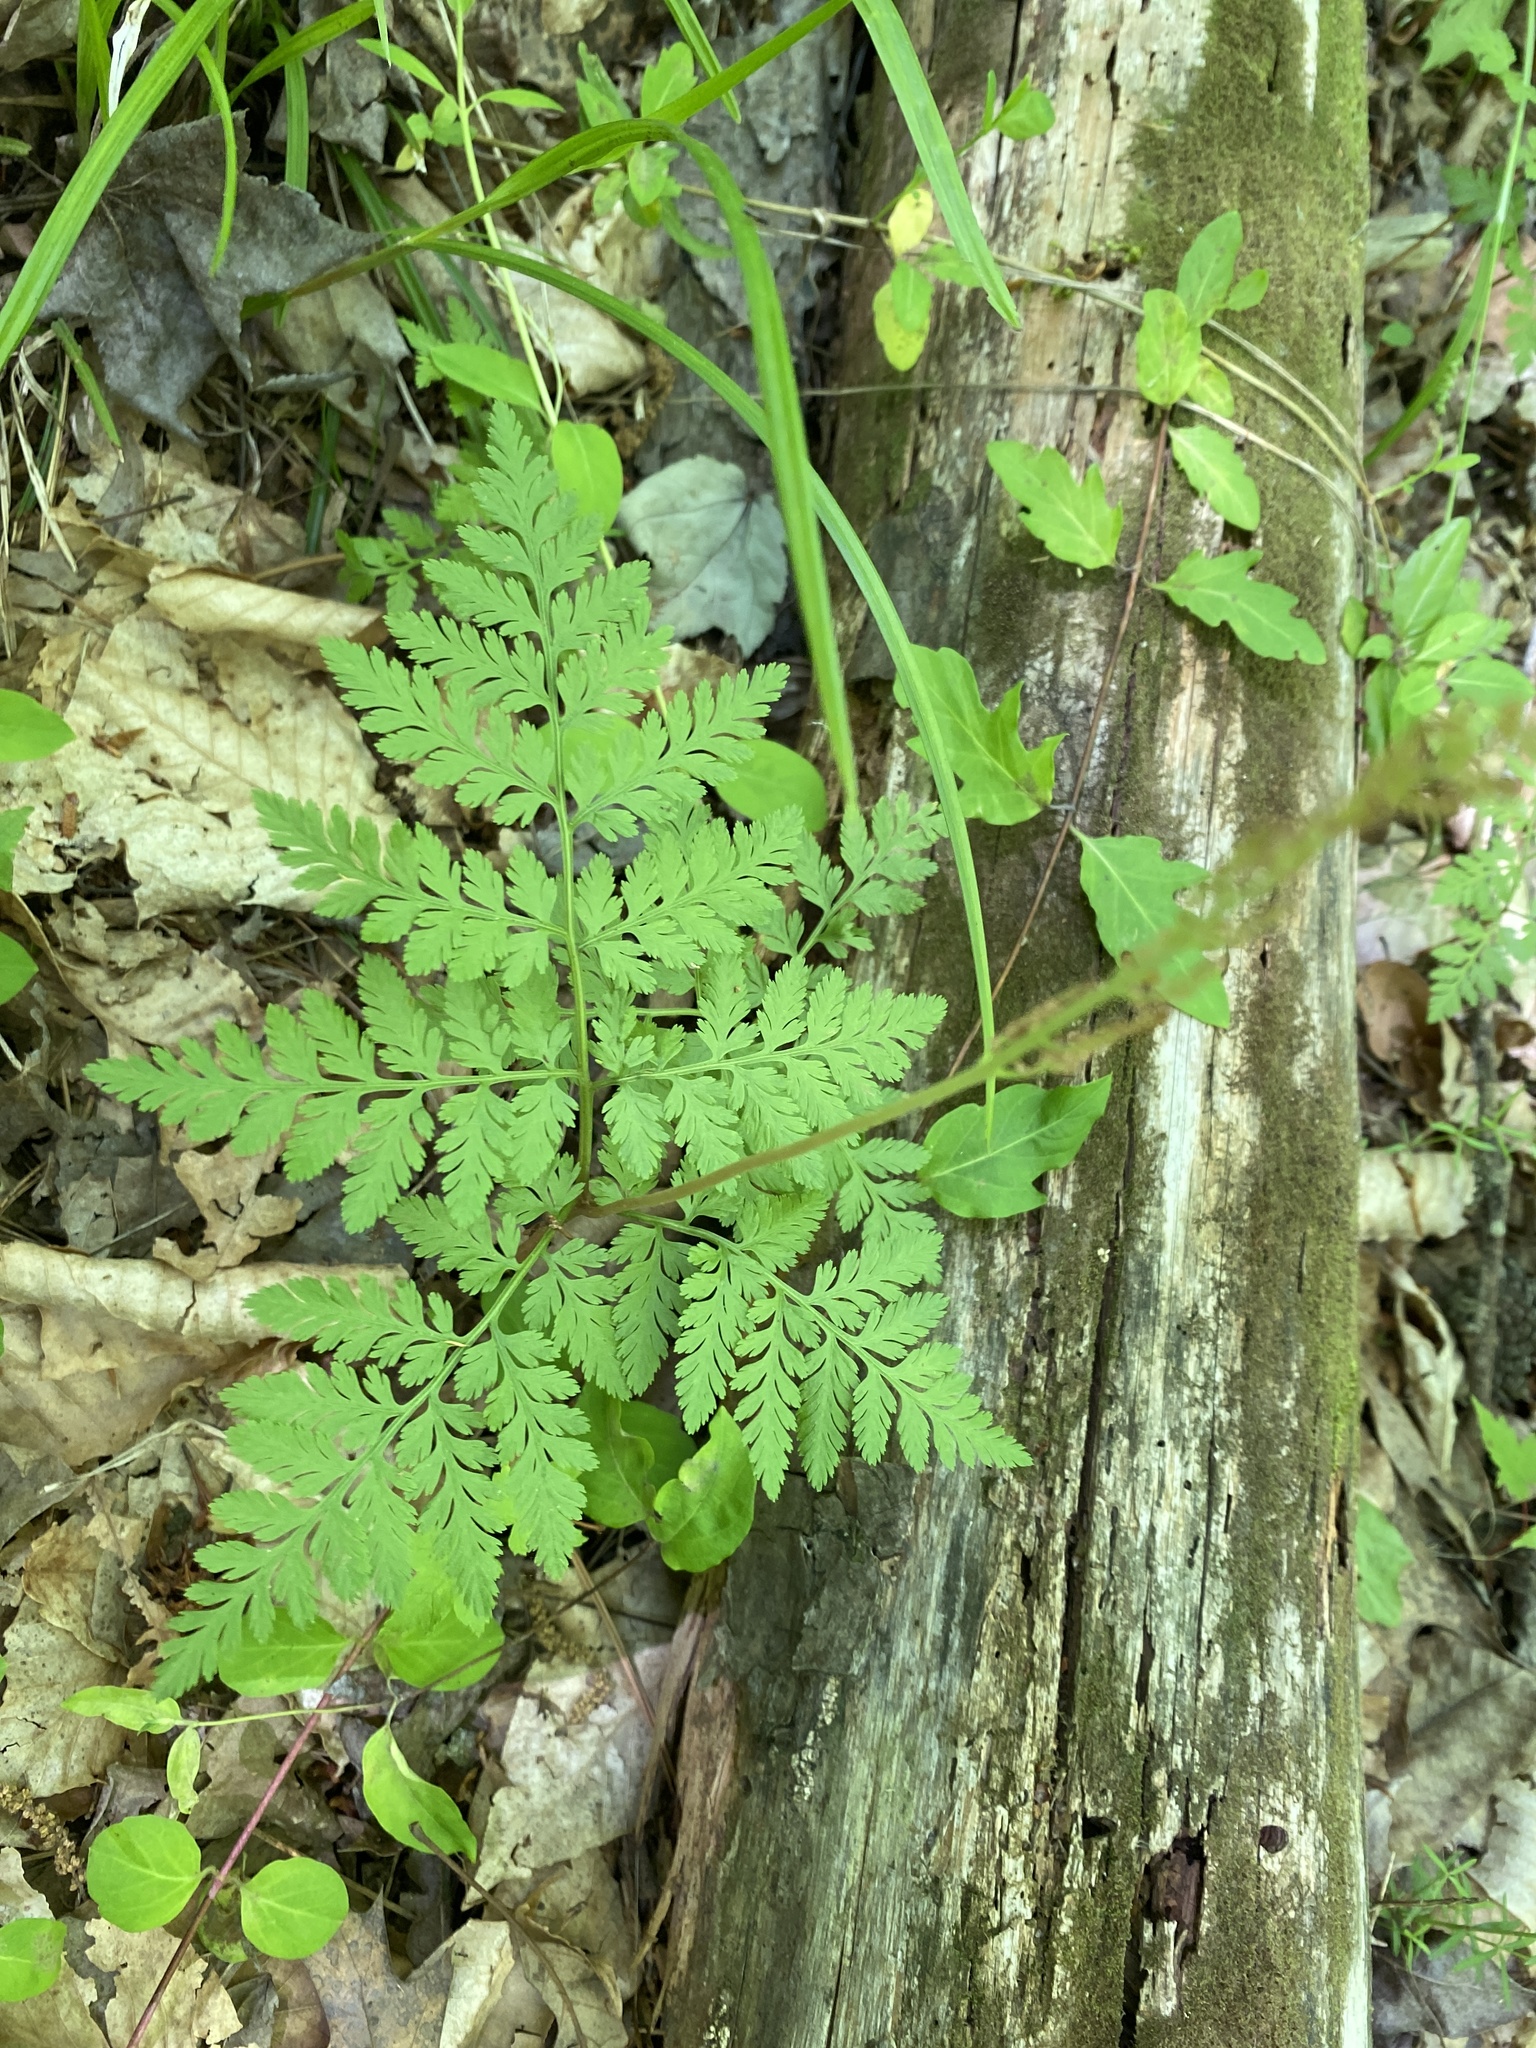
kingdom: Plantae
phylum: Tracheophyta
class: Polypodiopsida
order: Ophioglossales
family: Ophioglossaceae
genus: Botrypus
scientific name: Botrypus virginianus
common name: Common grapefern
